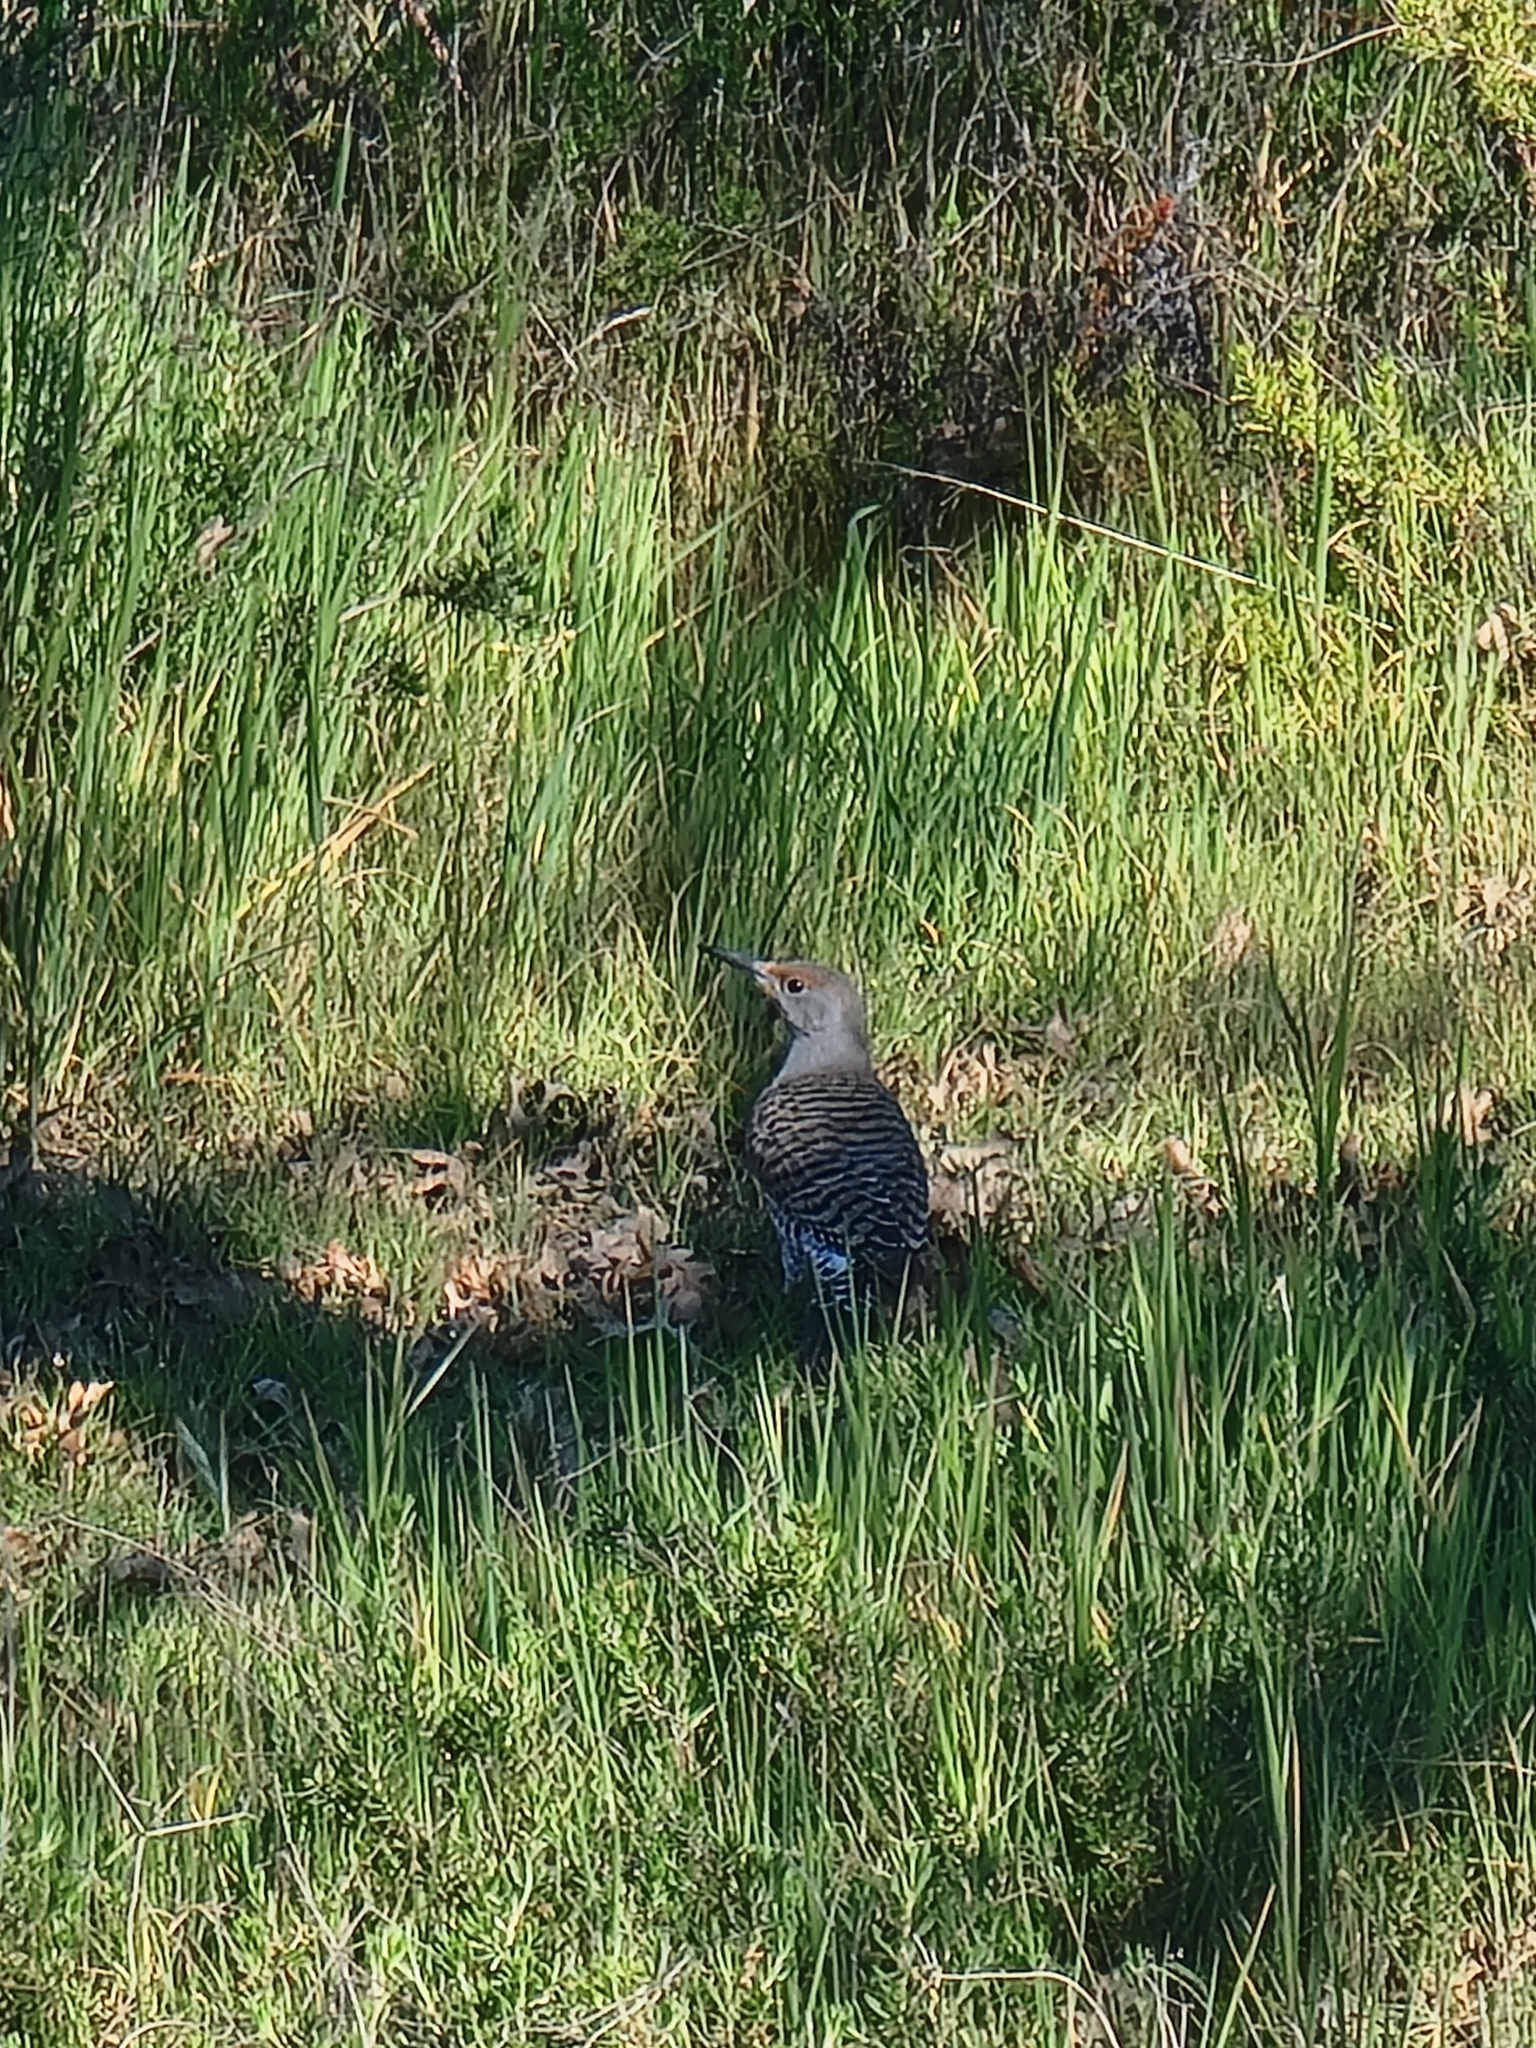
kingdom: Animalia
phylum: Chordata
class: Aves
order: Piciformes
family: Picidae
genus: Colaptes
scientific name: Colaptes auratus
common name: Northern flicker
